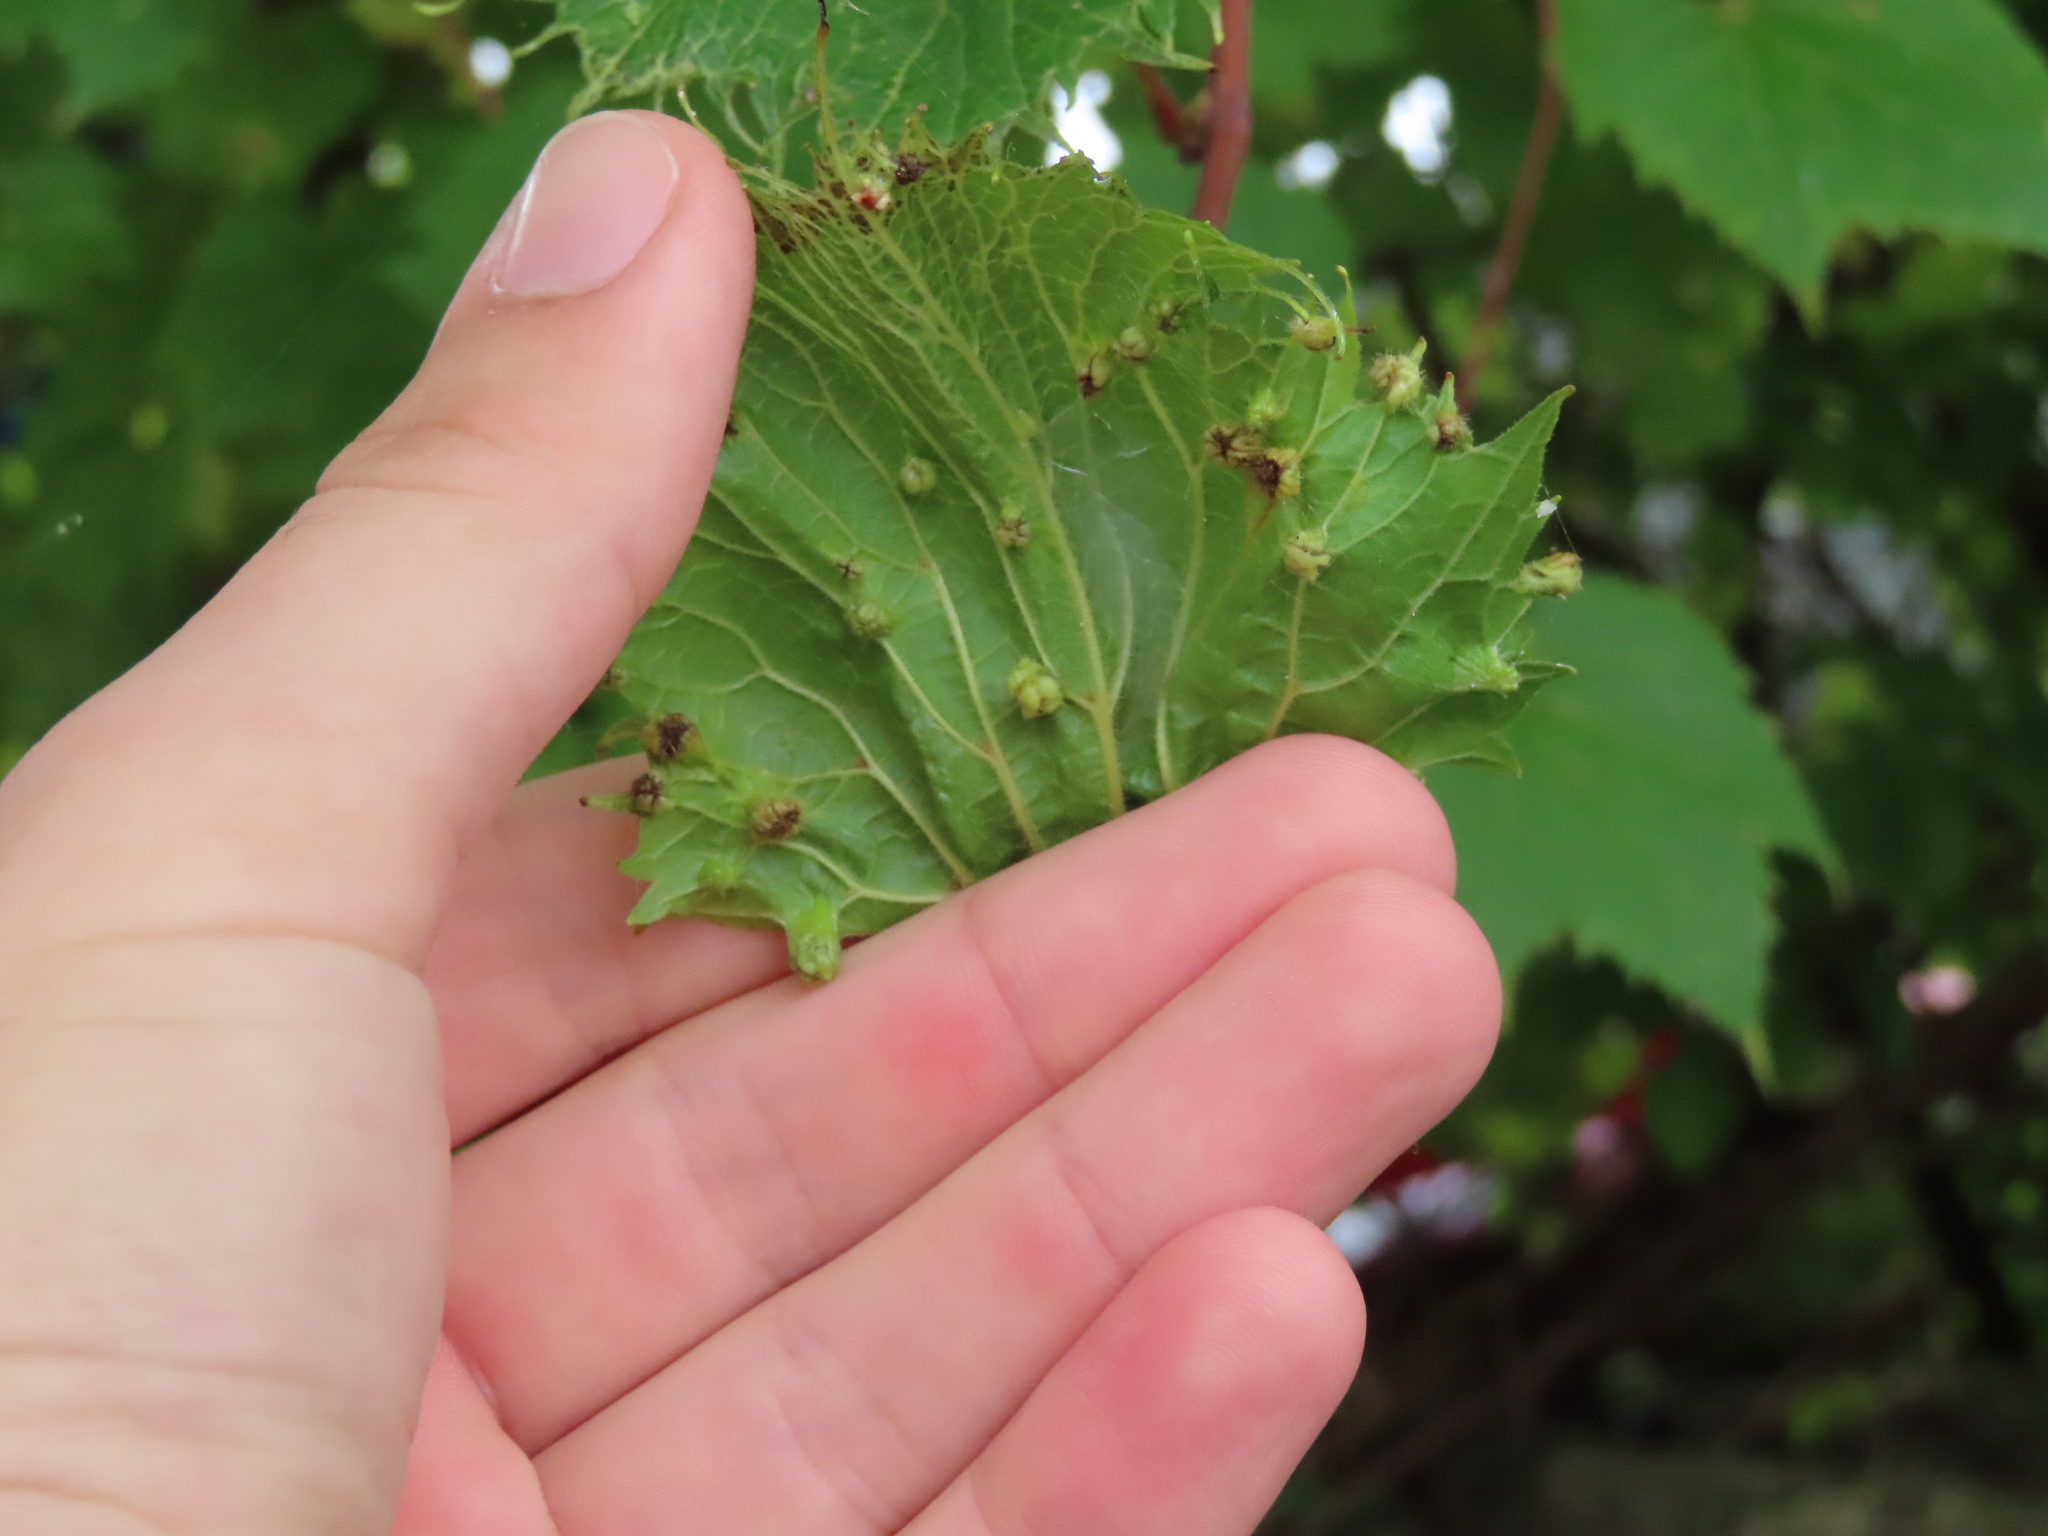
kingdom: Animalia
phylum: Arthropoda
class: Insecta
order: Hemiptera
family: Phylloxeridae
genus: Daktulosphaira
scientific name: Daktulosphaira vitifoliae
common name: Grape phylloxera
